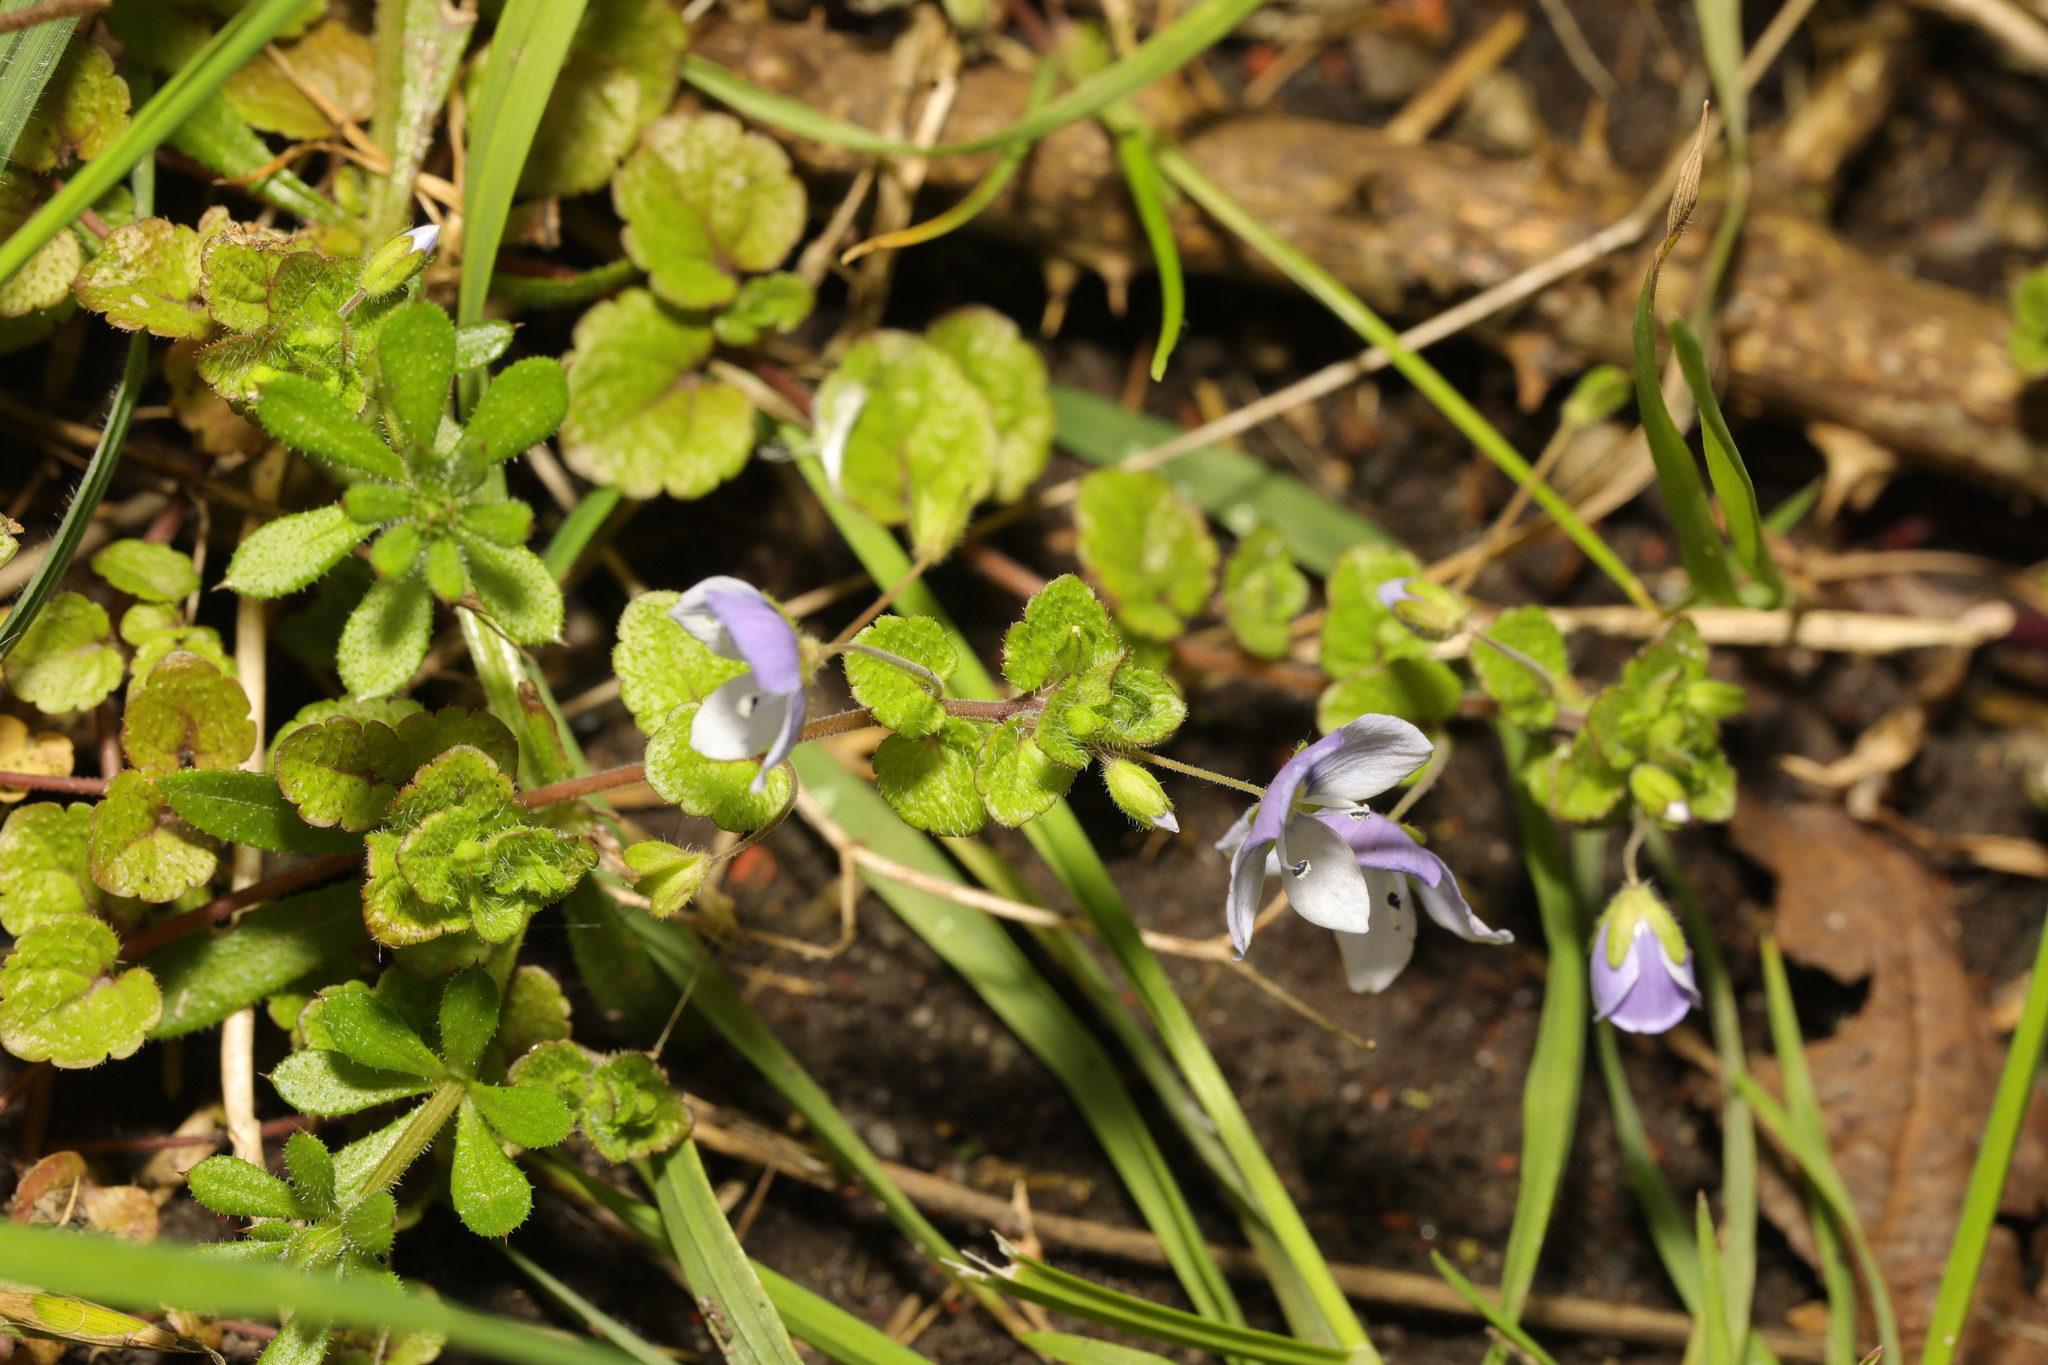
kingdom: Plantae
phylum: Tracheophyta
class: Magnoliopsida
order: Lamiales
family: Plantaginaceae
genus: Veronica
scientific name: Veronica filiformis
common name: Slender speedwell
